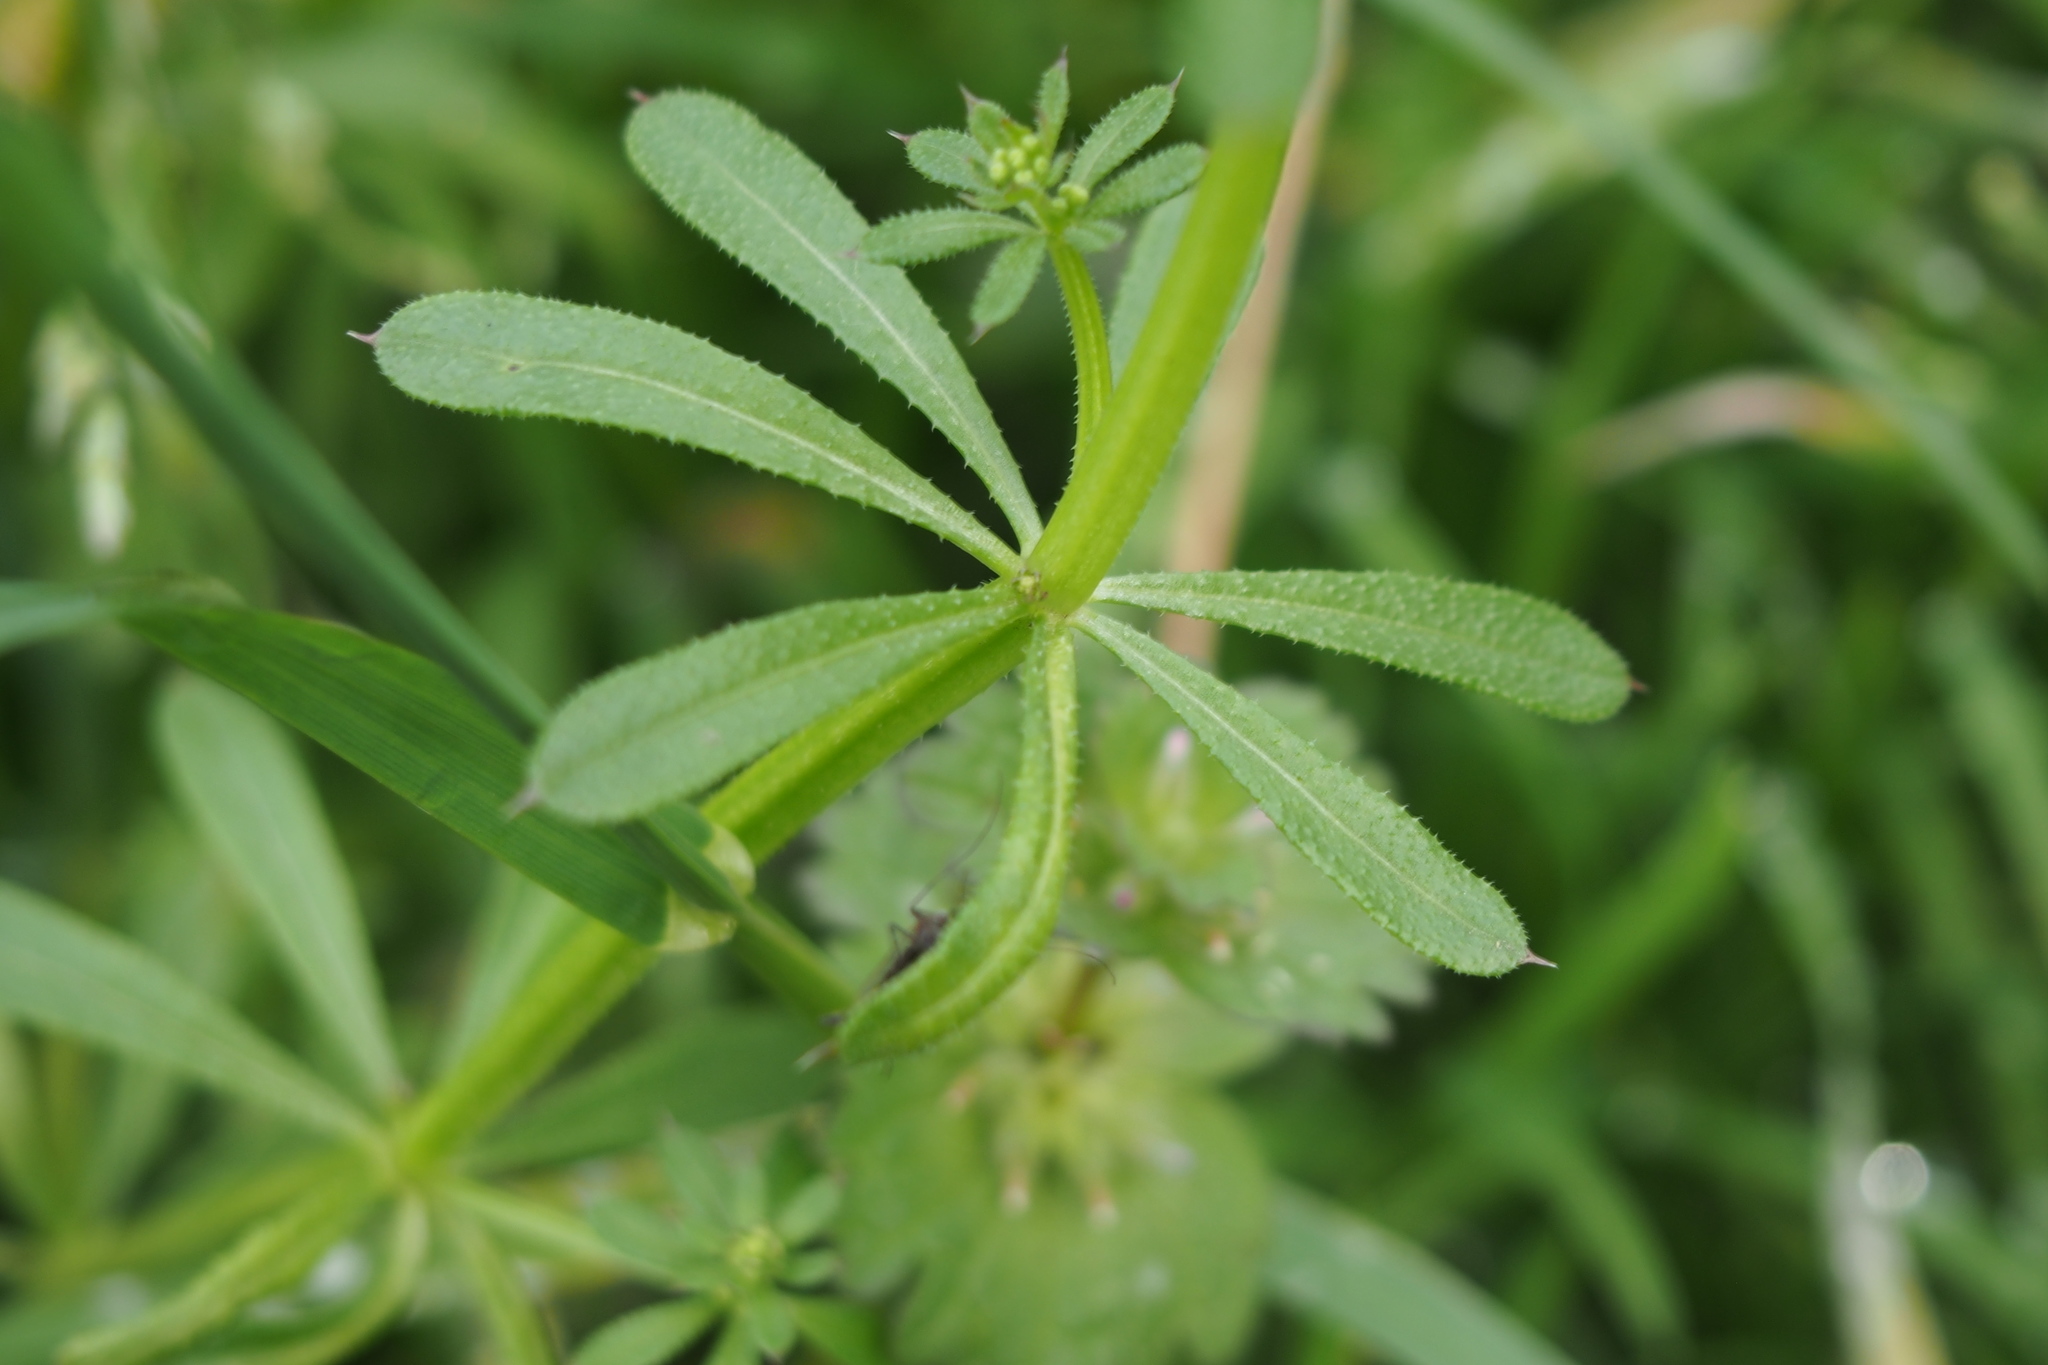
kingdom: Plantae
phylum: Tracheophyta
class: Magnoliopsida
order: Gentianales
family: Rubiaceae
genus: Galium
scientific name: Galium
